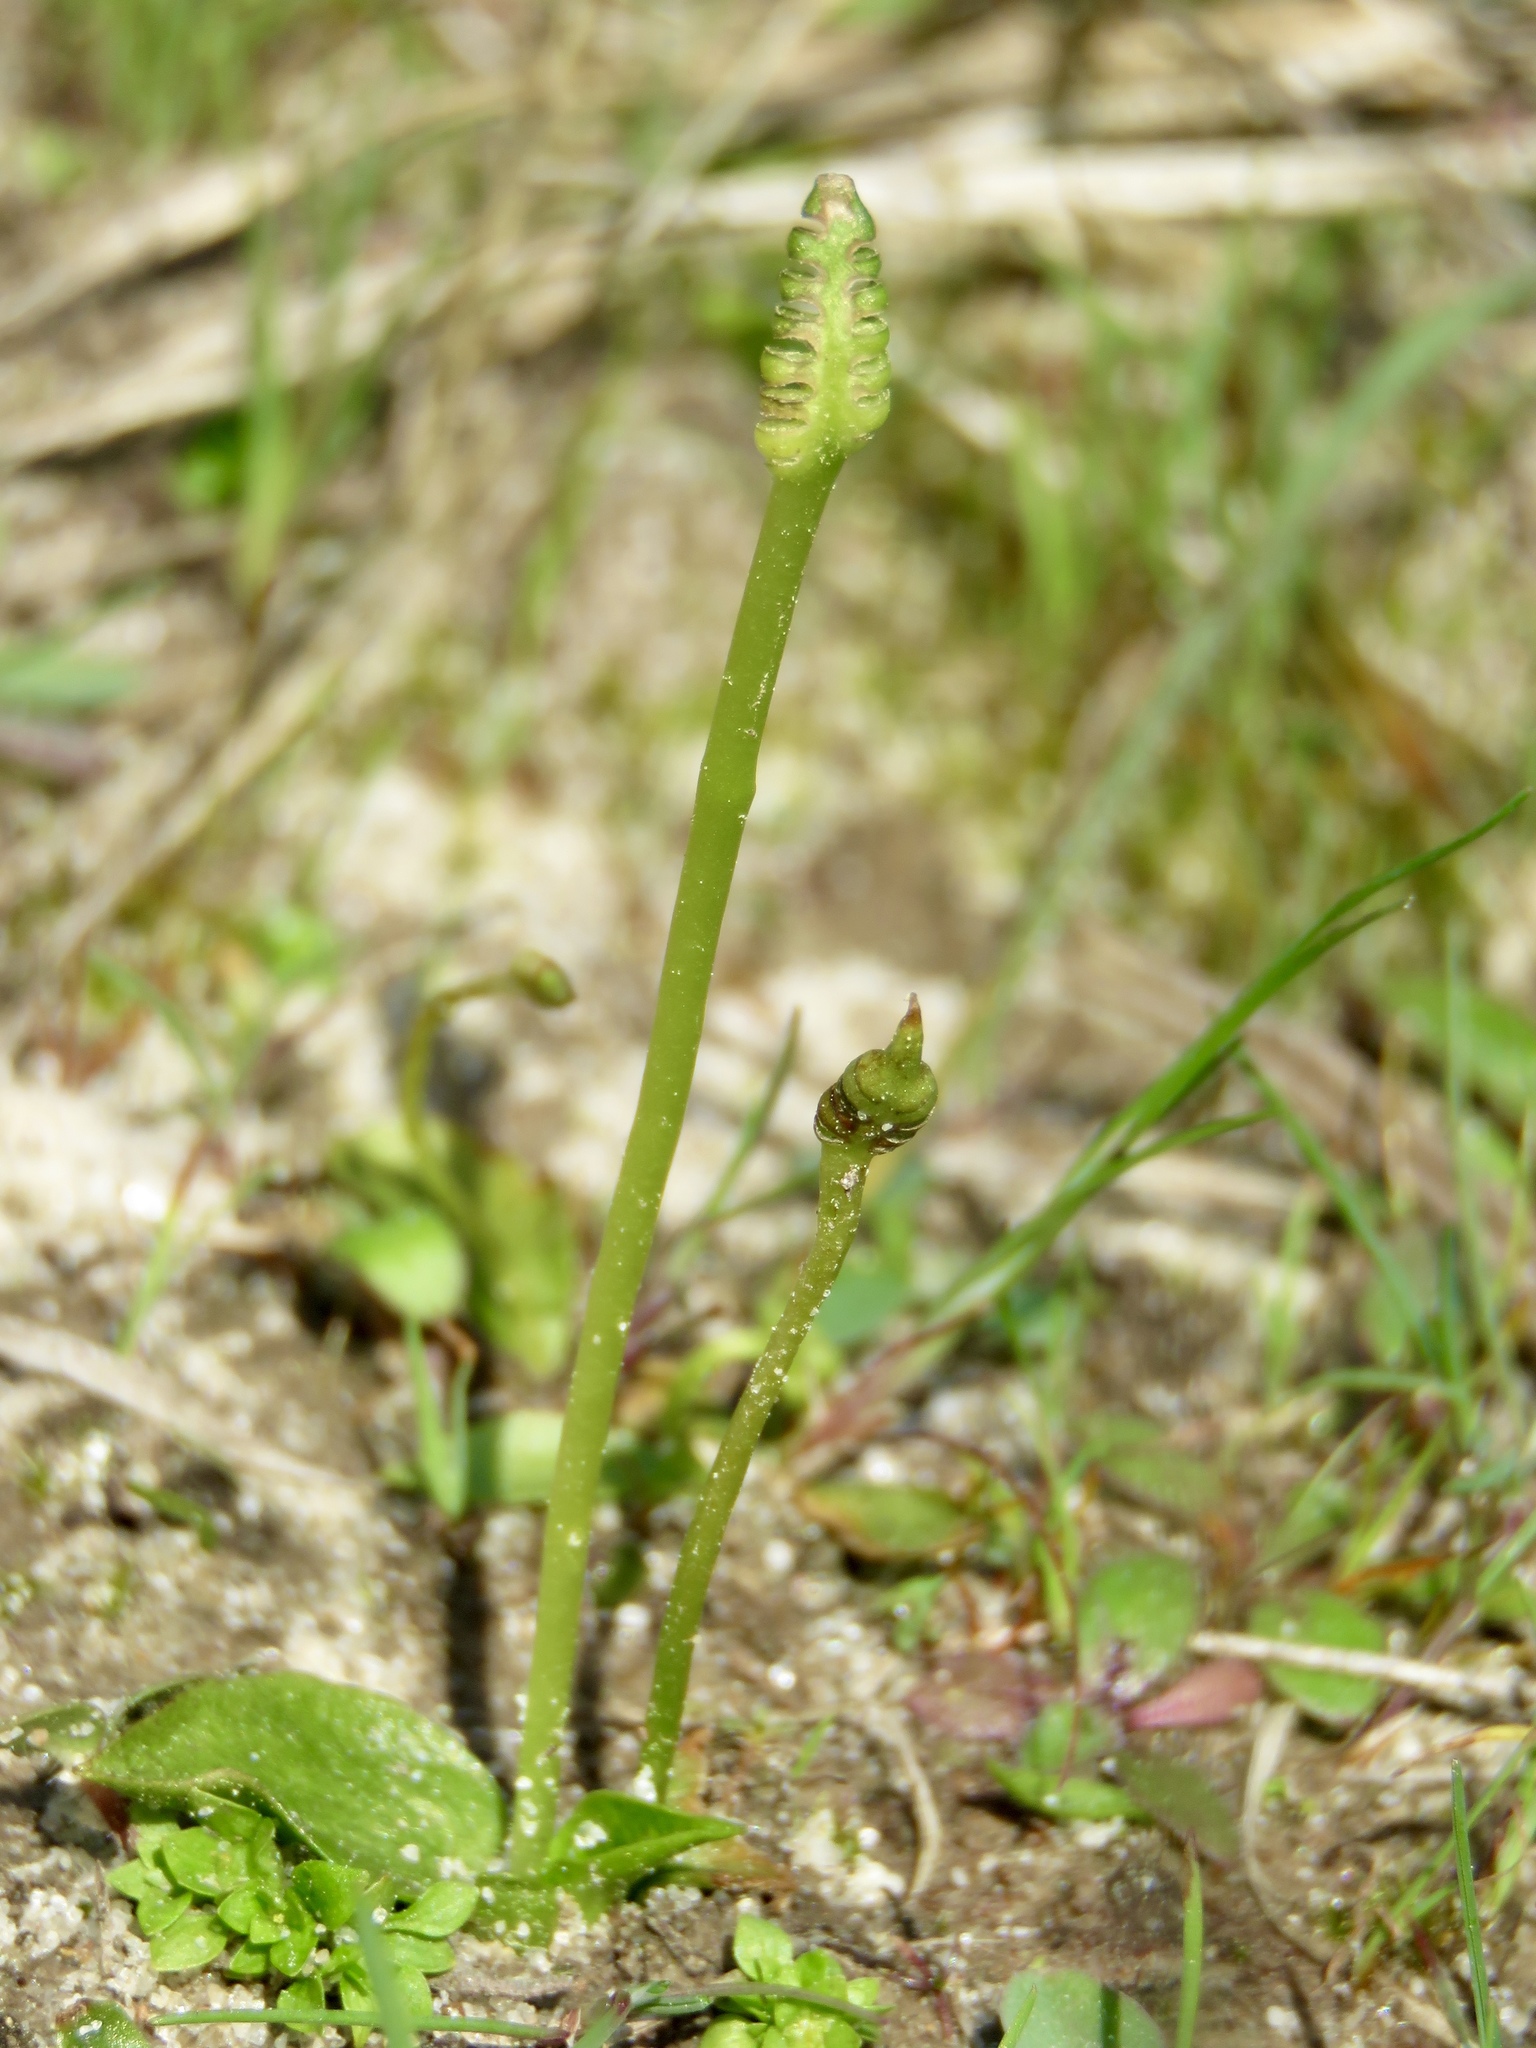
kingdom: Plantae
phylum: Tracheophyta
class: Polypodiopsida
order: Ophioglossales
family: Ophioglossaceae
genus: Ophioglossum
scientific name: Ophioglossum crotalophoroides
